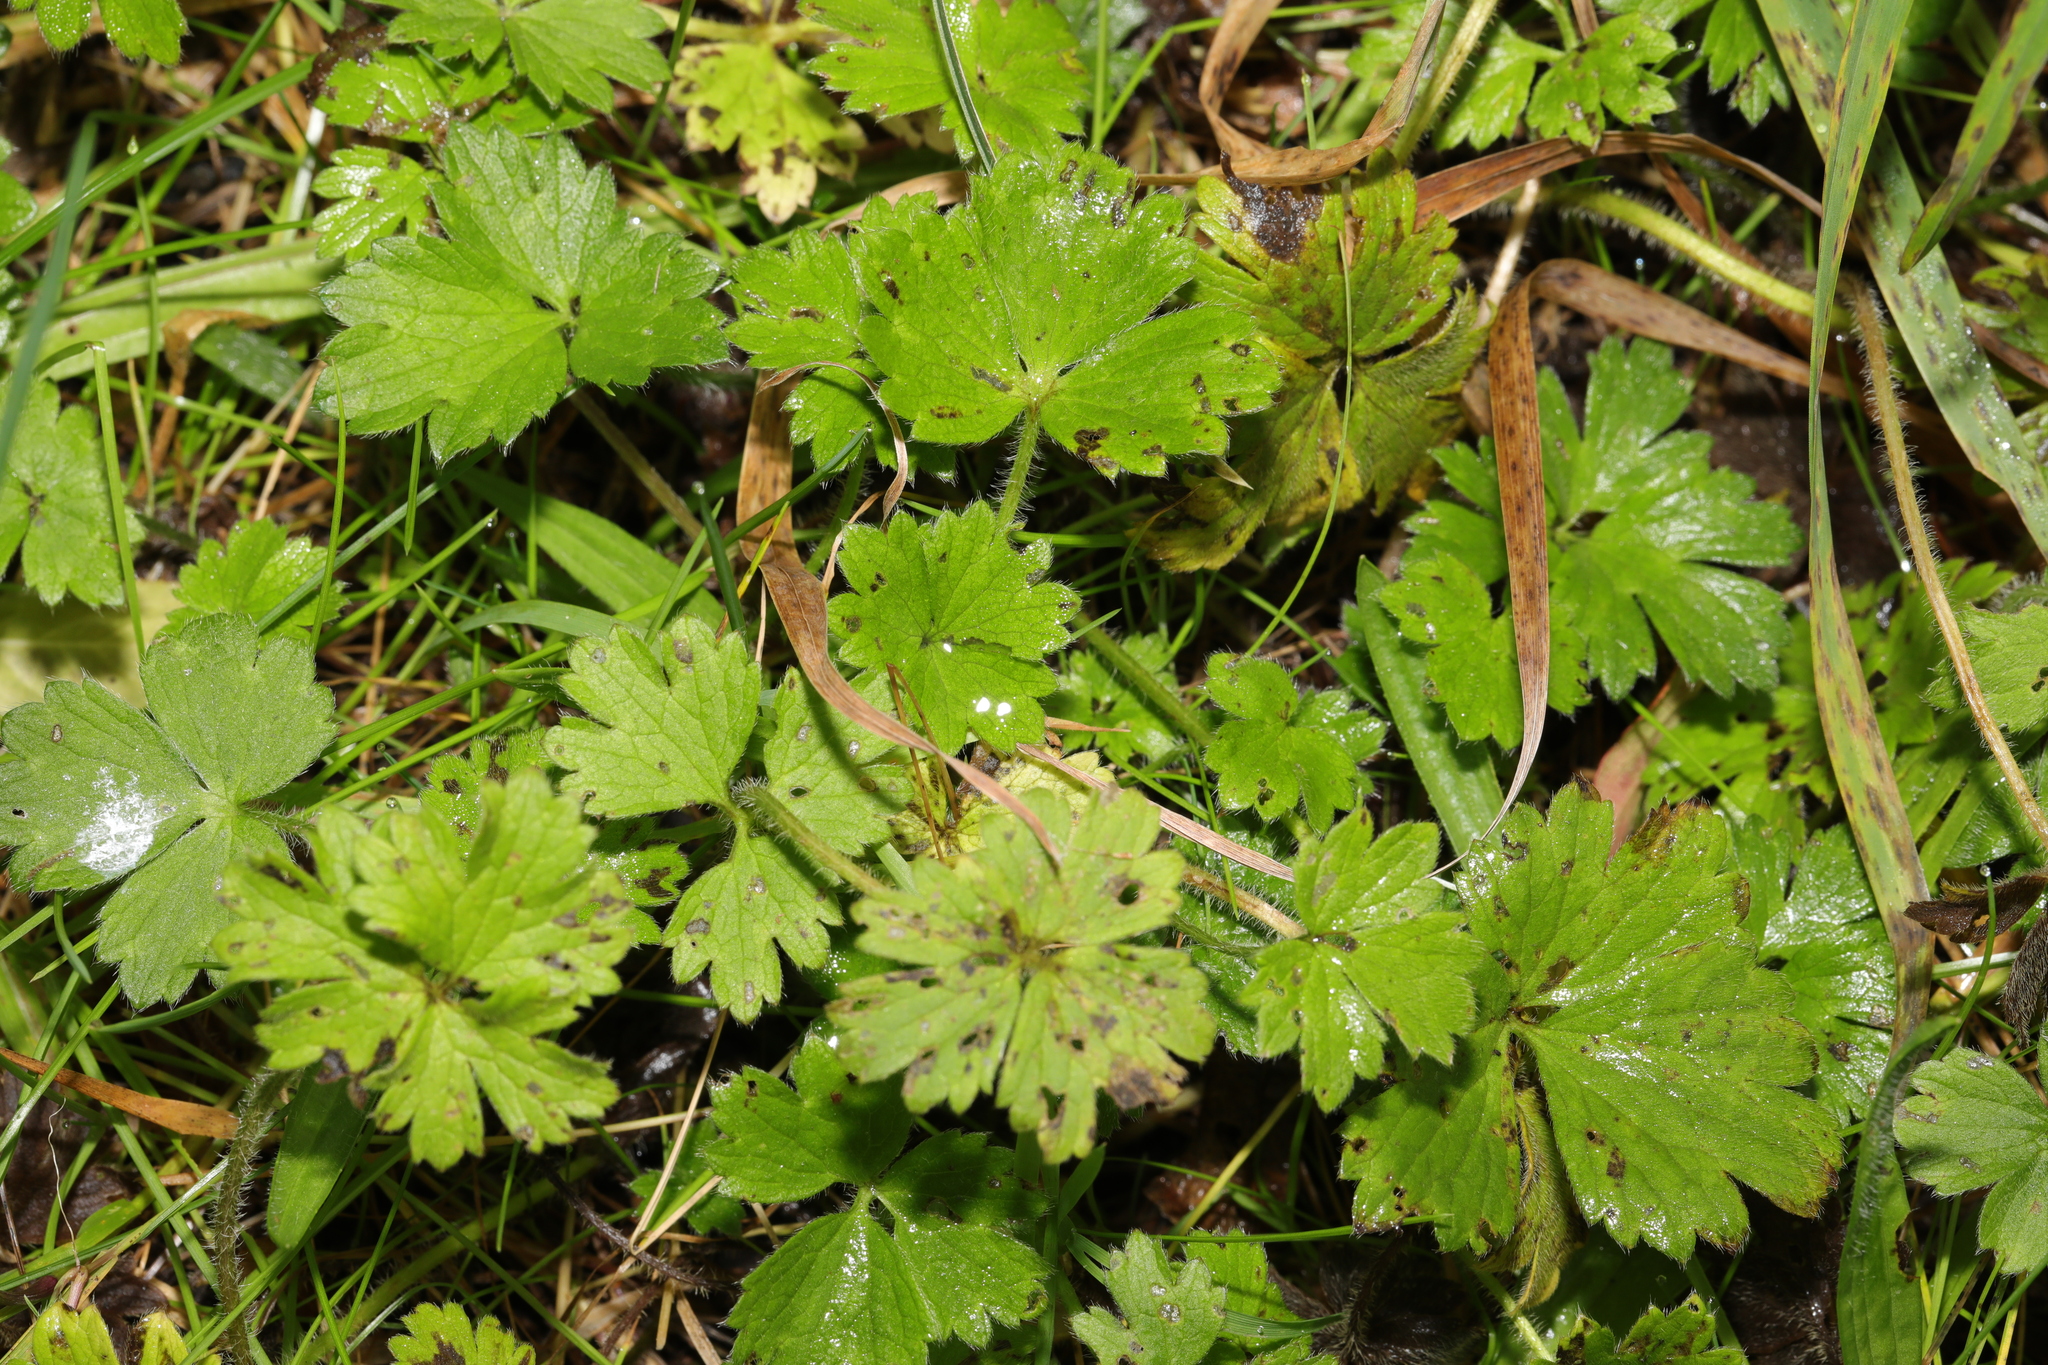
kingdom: Plantae
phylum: Tracheophyta
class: Magnoliopsida
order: Ranunculales
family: Ranunculaceae
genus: Ranunculus
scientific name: Ranunculus repens
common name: Creeping buttercup
